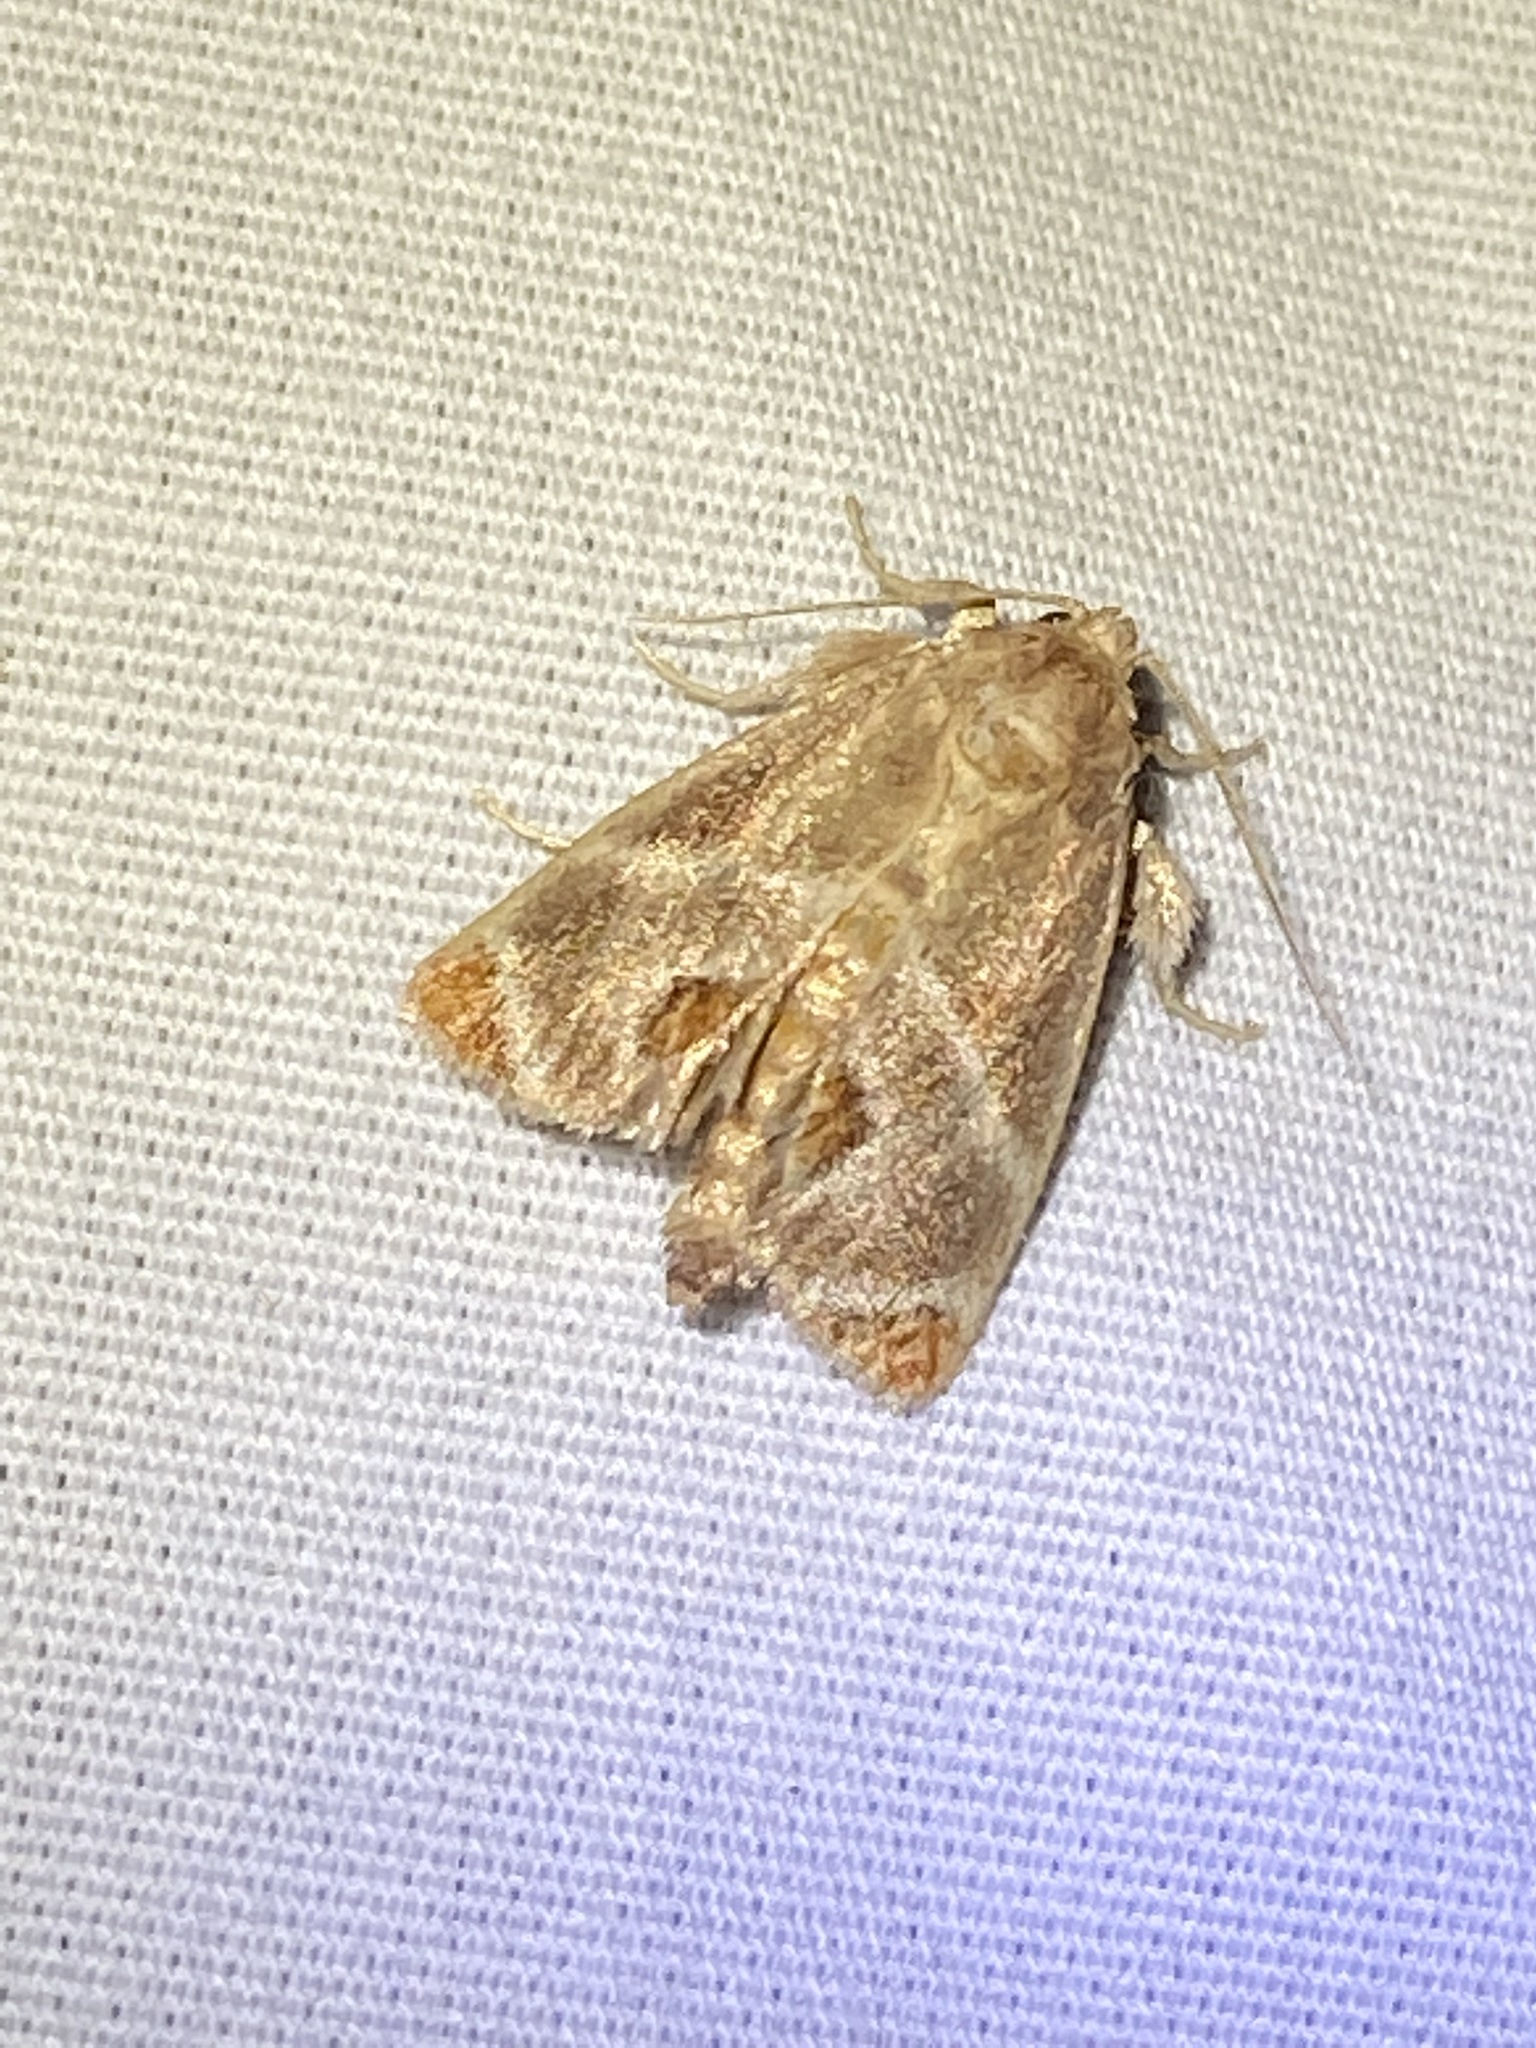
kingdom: Animalia
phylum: Arthropoda
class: Insecta
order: Lepidoptera
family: Limacodidae
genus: Apoda
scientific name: Apoda biguttata
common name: Shagreened slug moth
